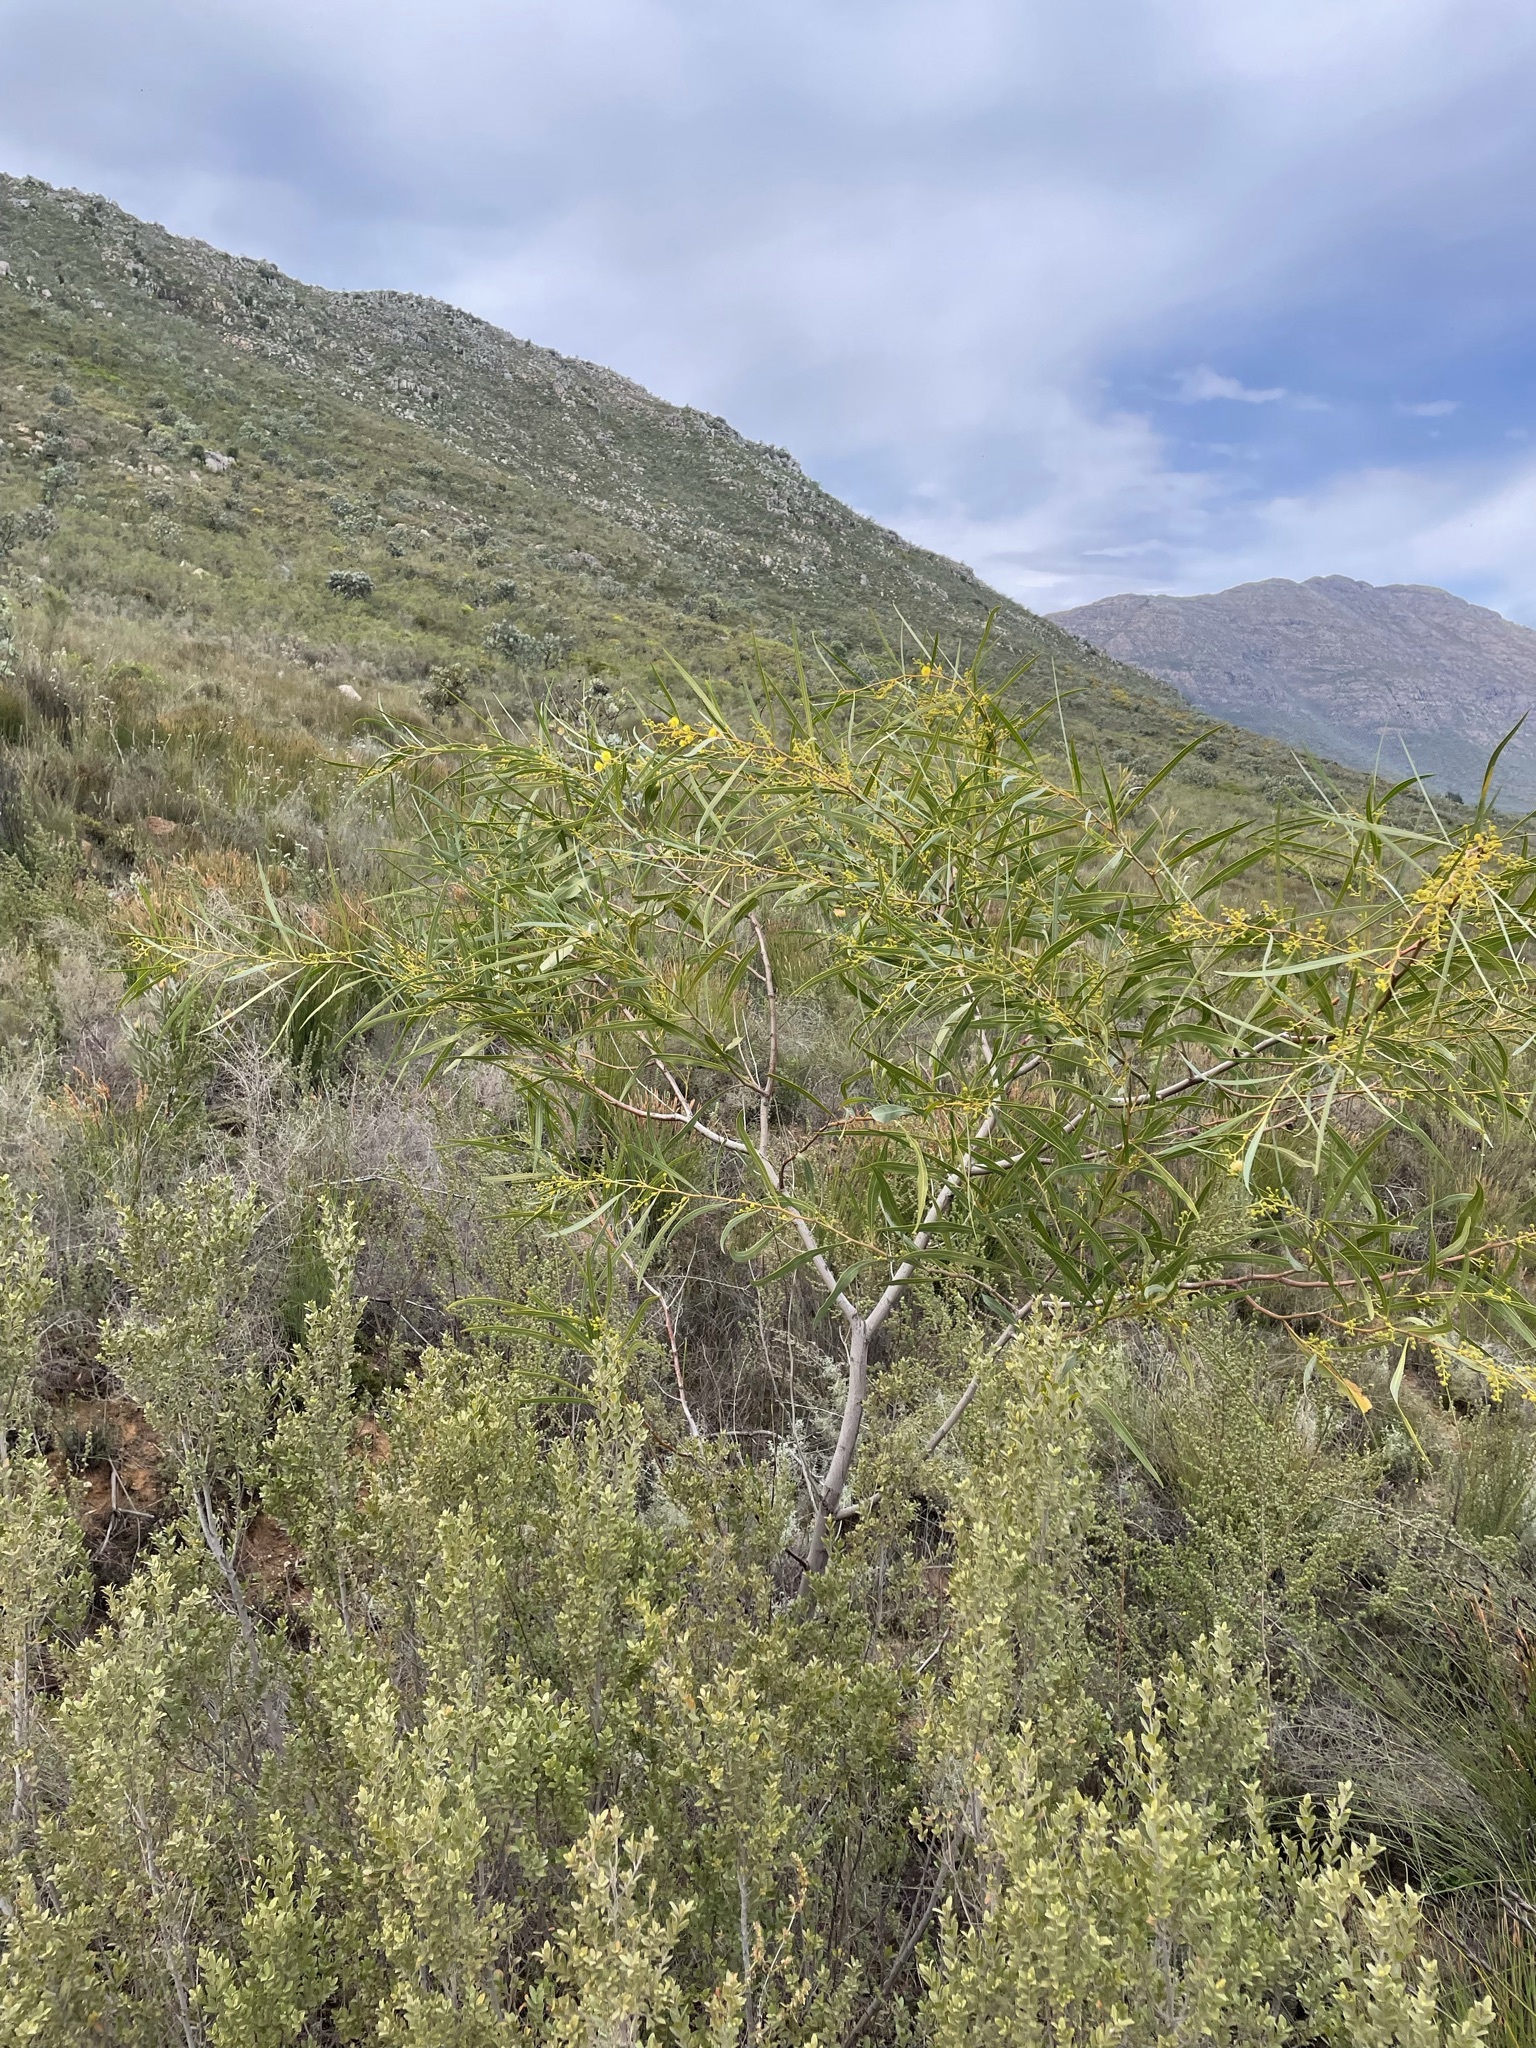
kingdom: Plantae
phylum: Tracheophyta
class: Magnoliopsida
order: Fabales
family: Fabaceae
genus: Acacia
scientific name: Acacia saligna
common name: Orange wattle
